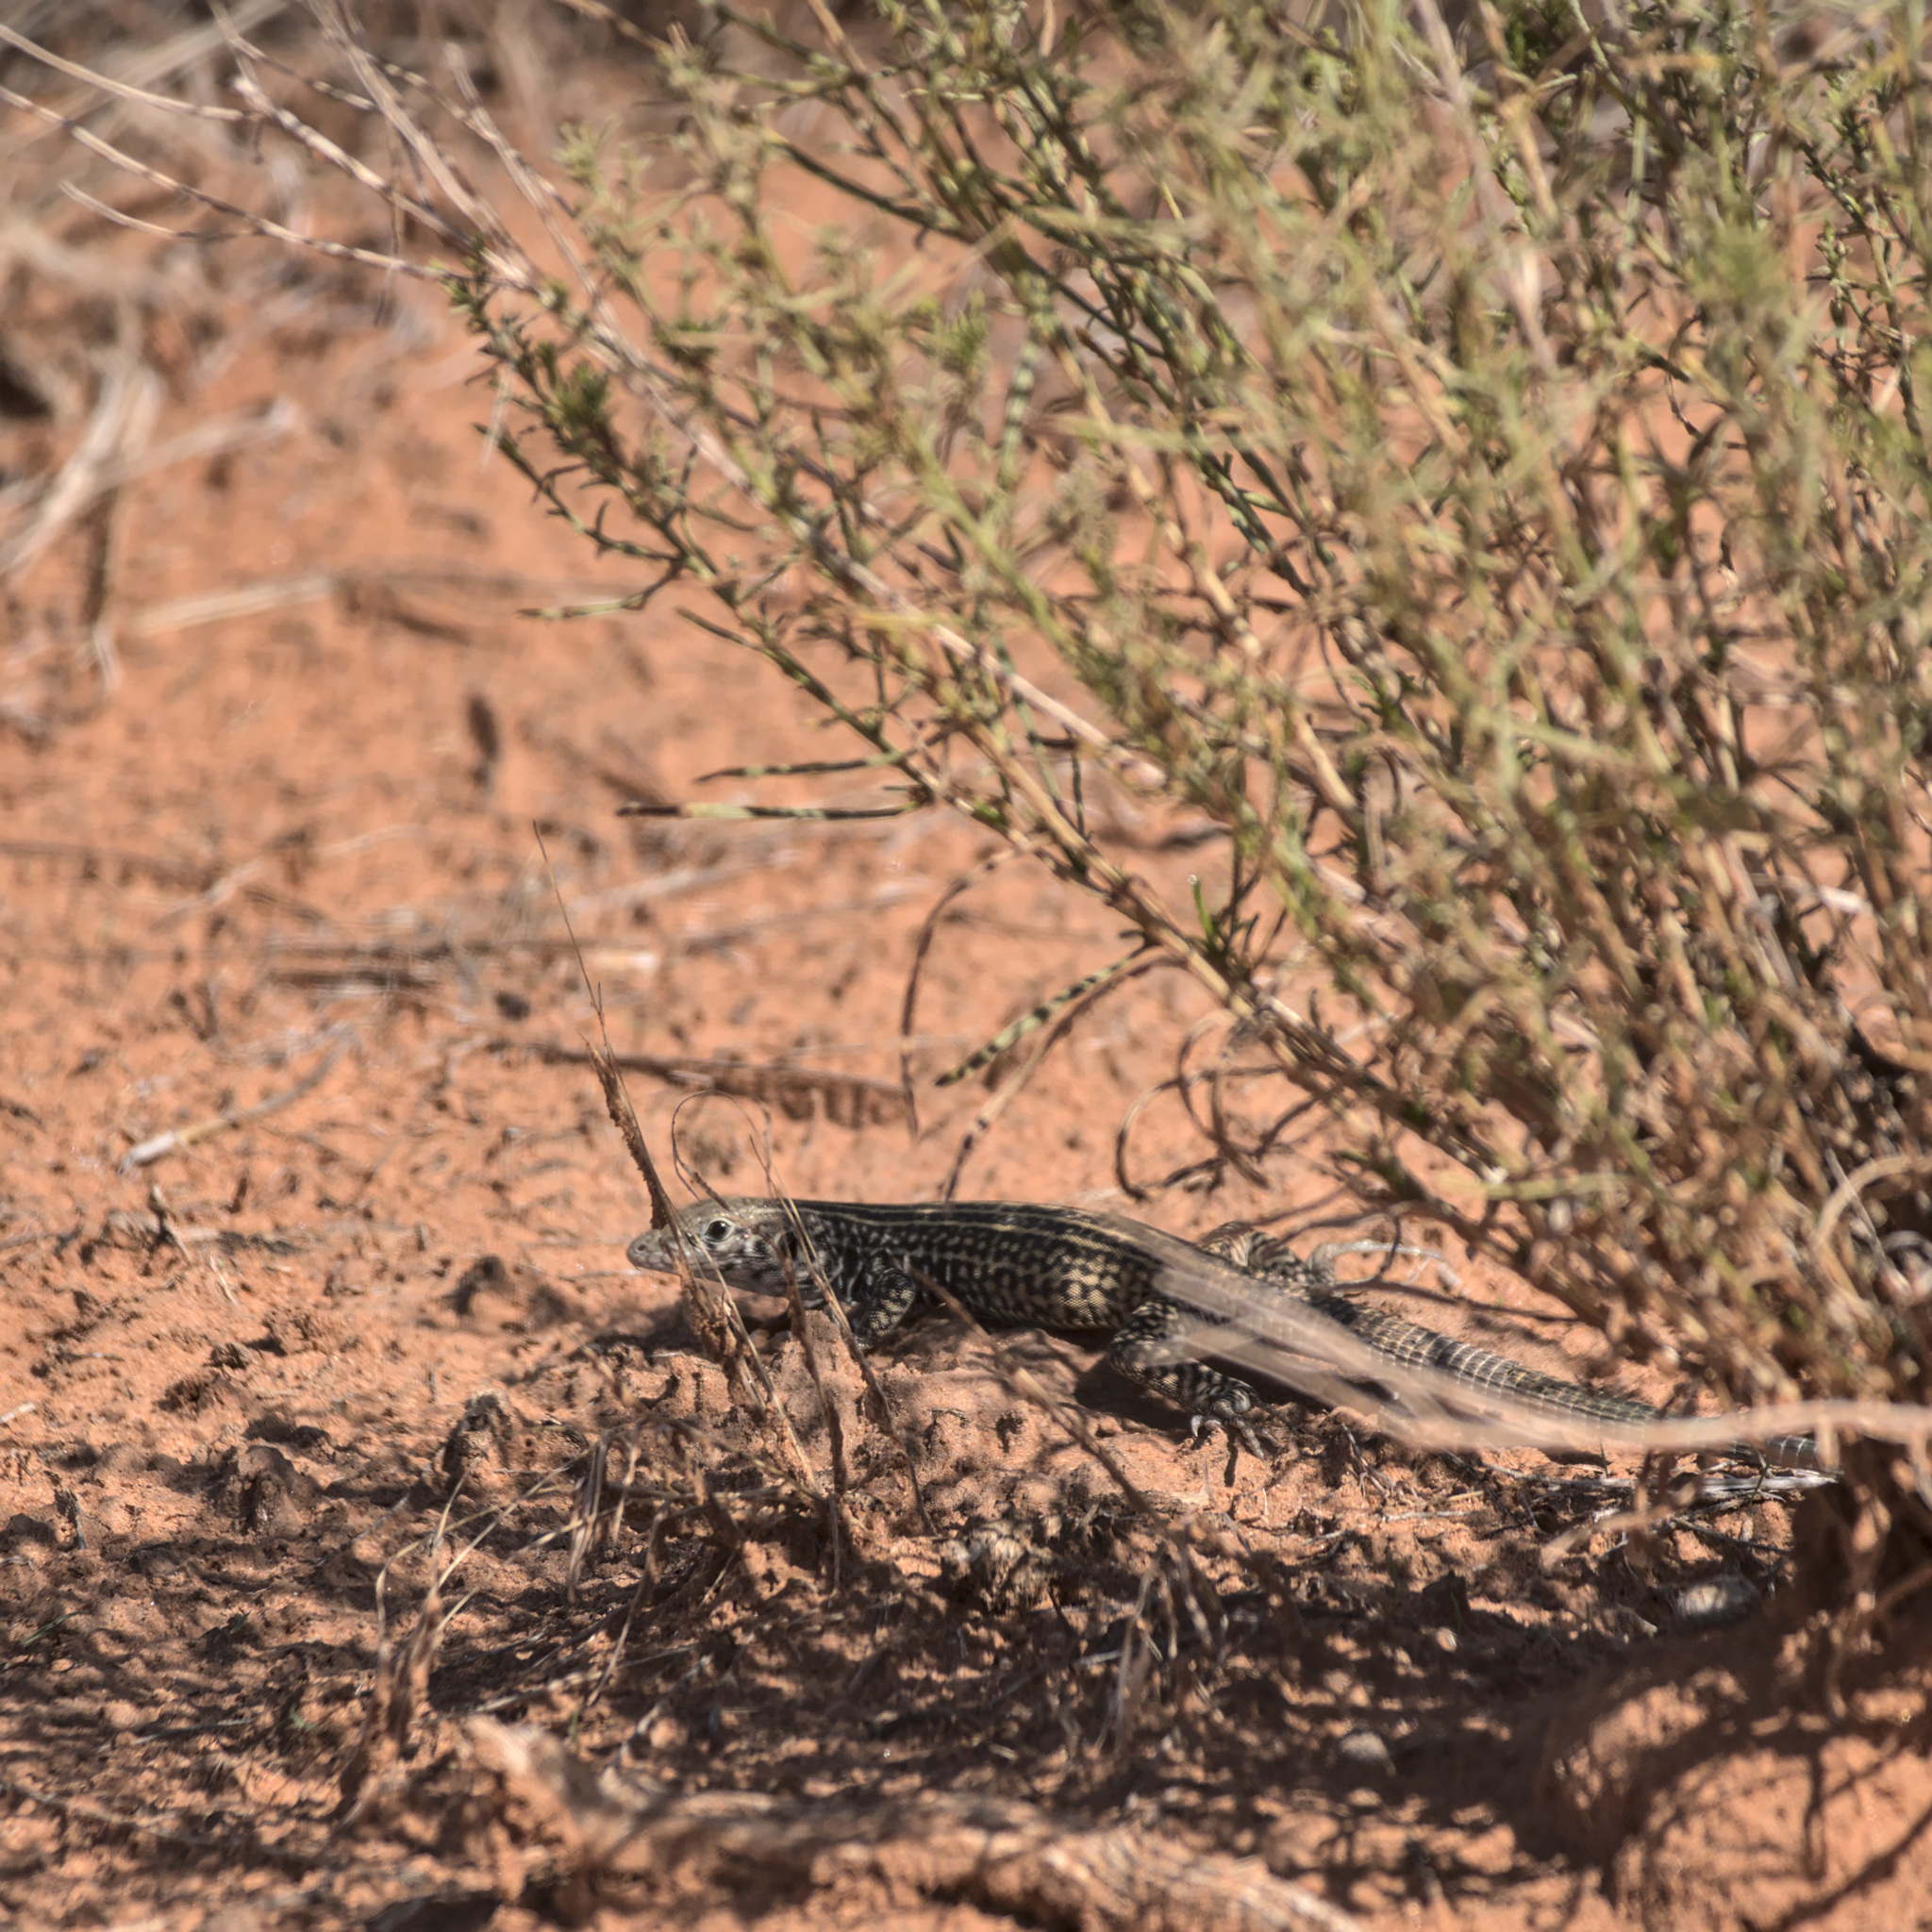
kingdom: Animalia
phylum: Chordata
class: Squamata
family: Teiidae
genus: Aspidoscelis
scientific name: Aspidoscelis tigris
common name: Tiger whiptail
